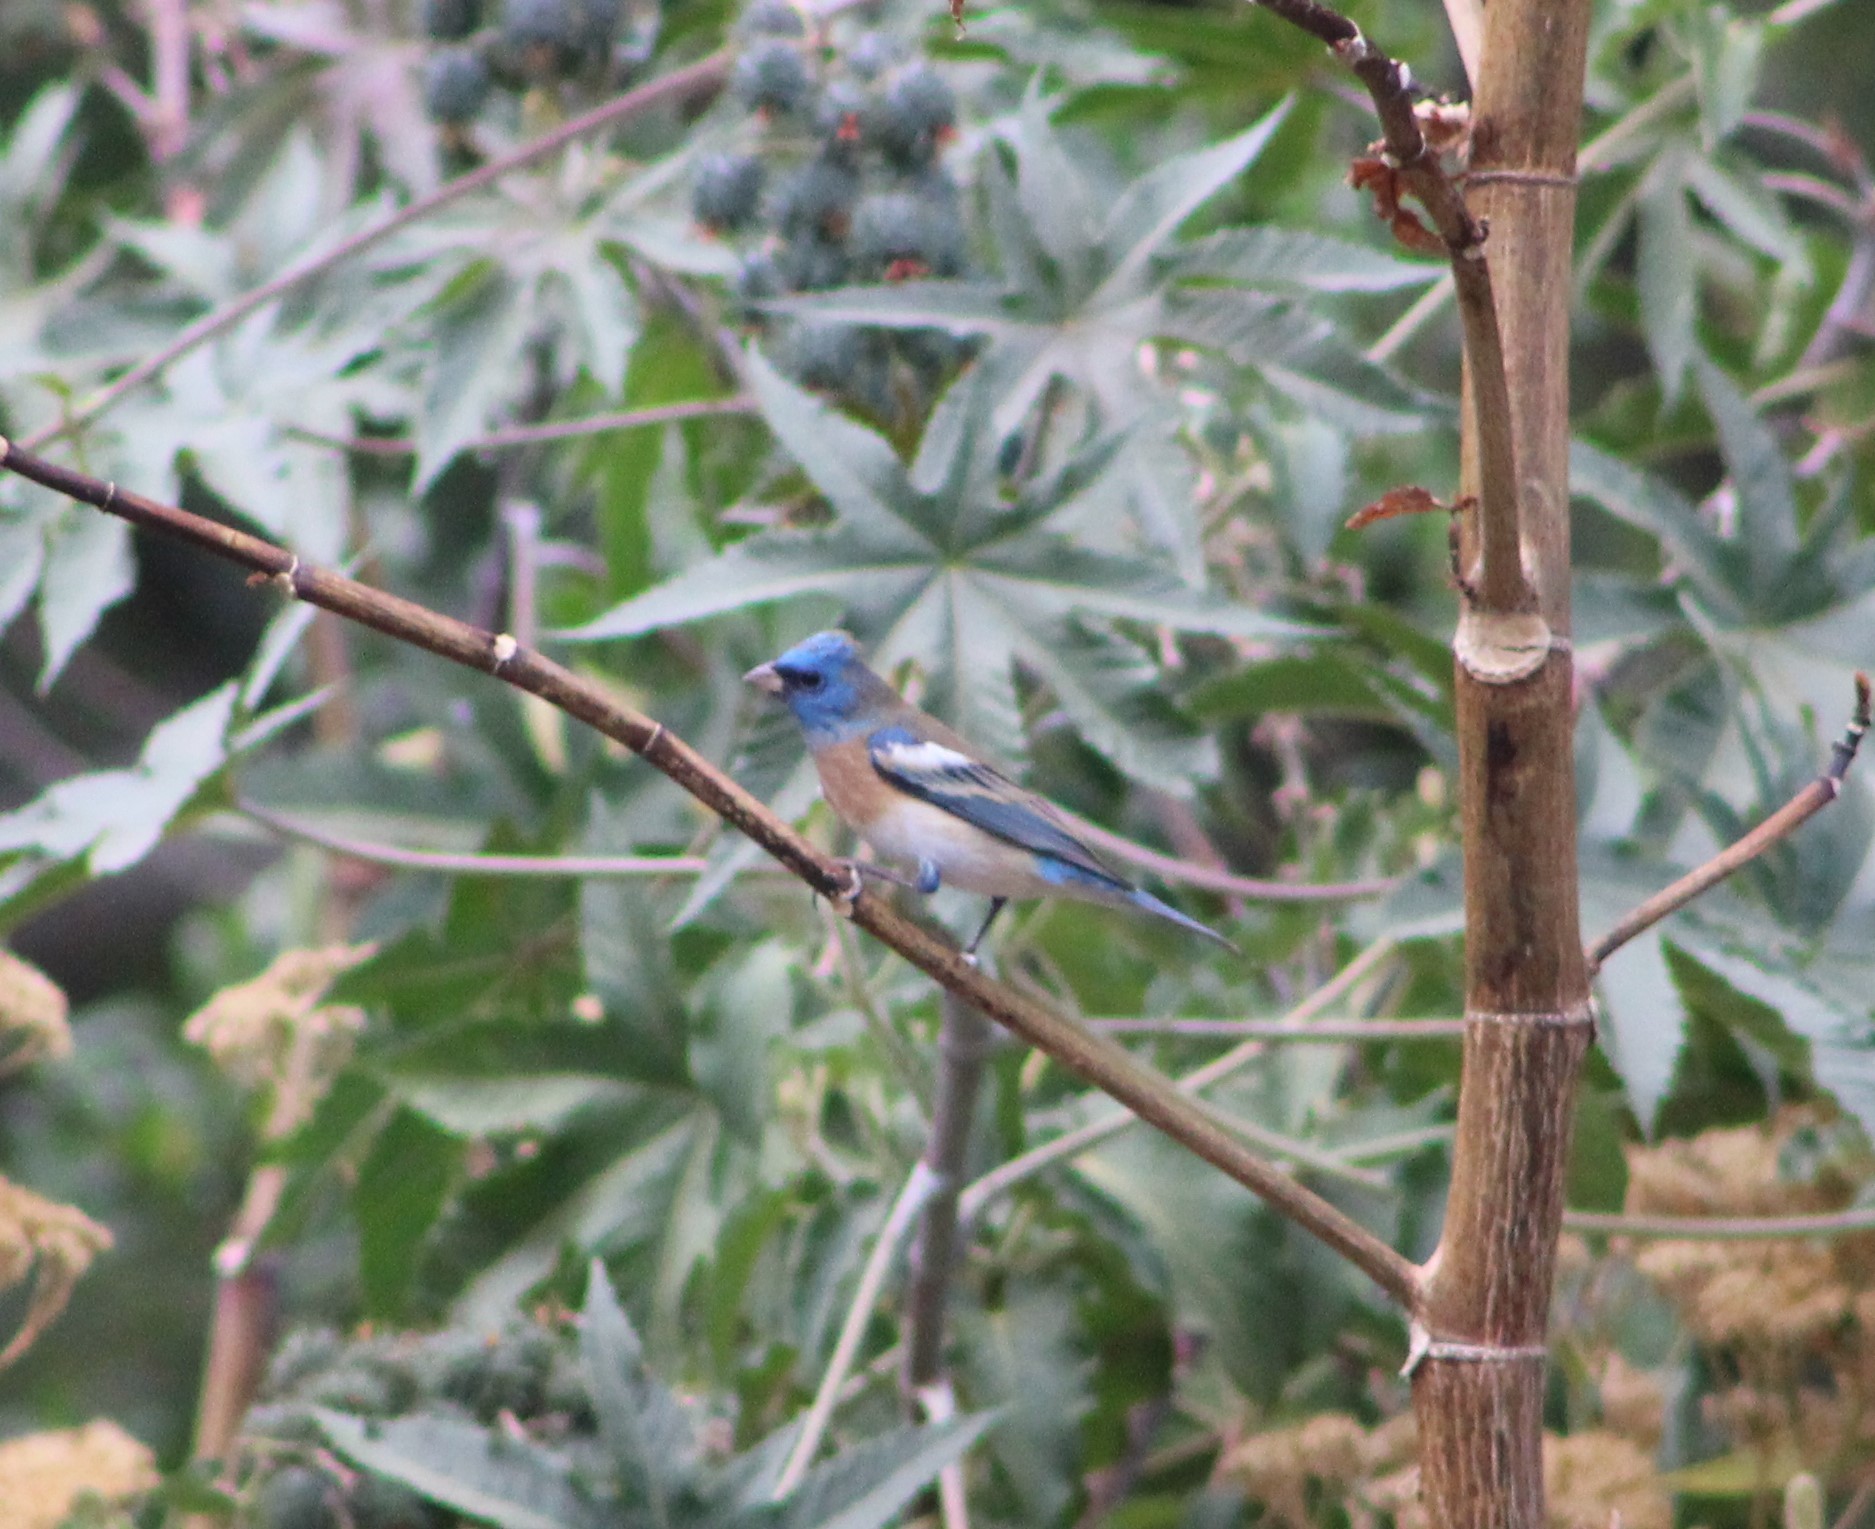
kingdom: Animalia
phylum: Chordata
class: Aves
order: Passeriformes
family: Cardinalidae
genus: Passerina
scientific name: Passerina amoena
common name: Lazuli bunting
